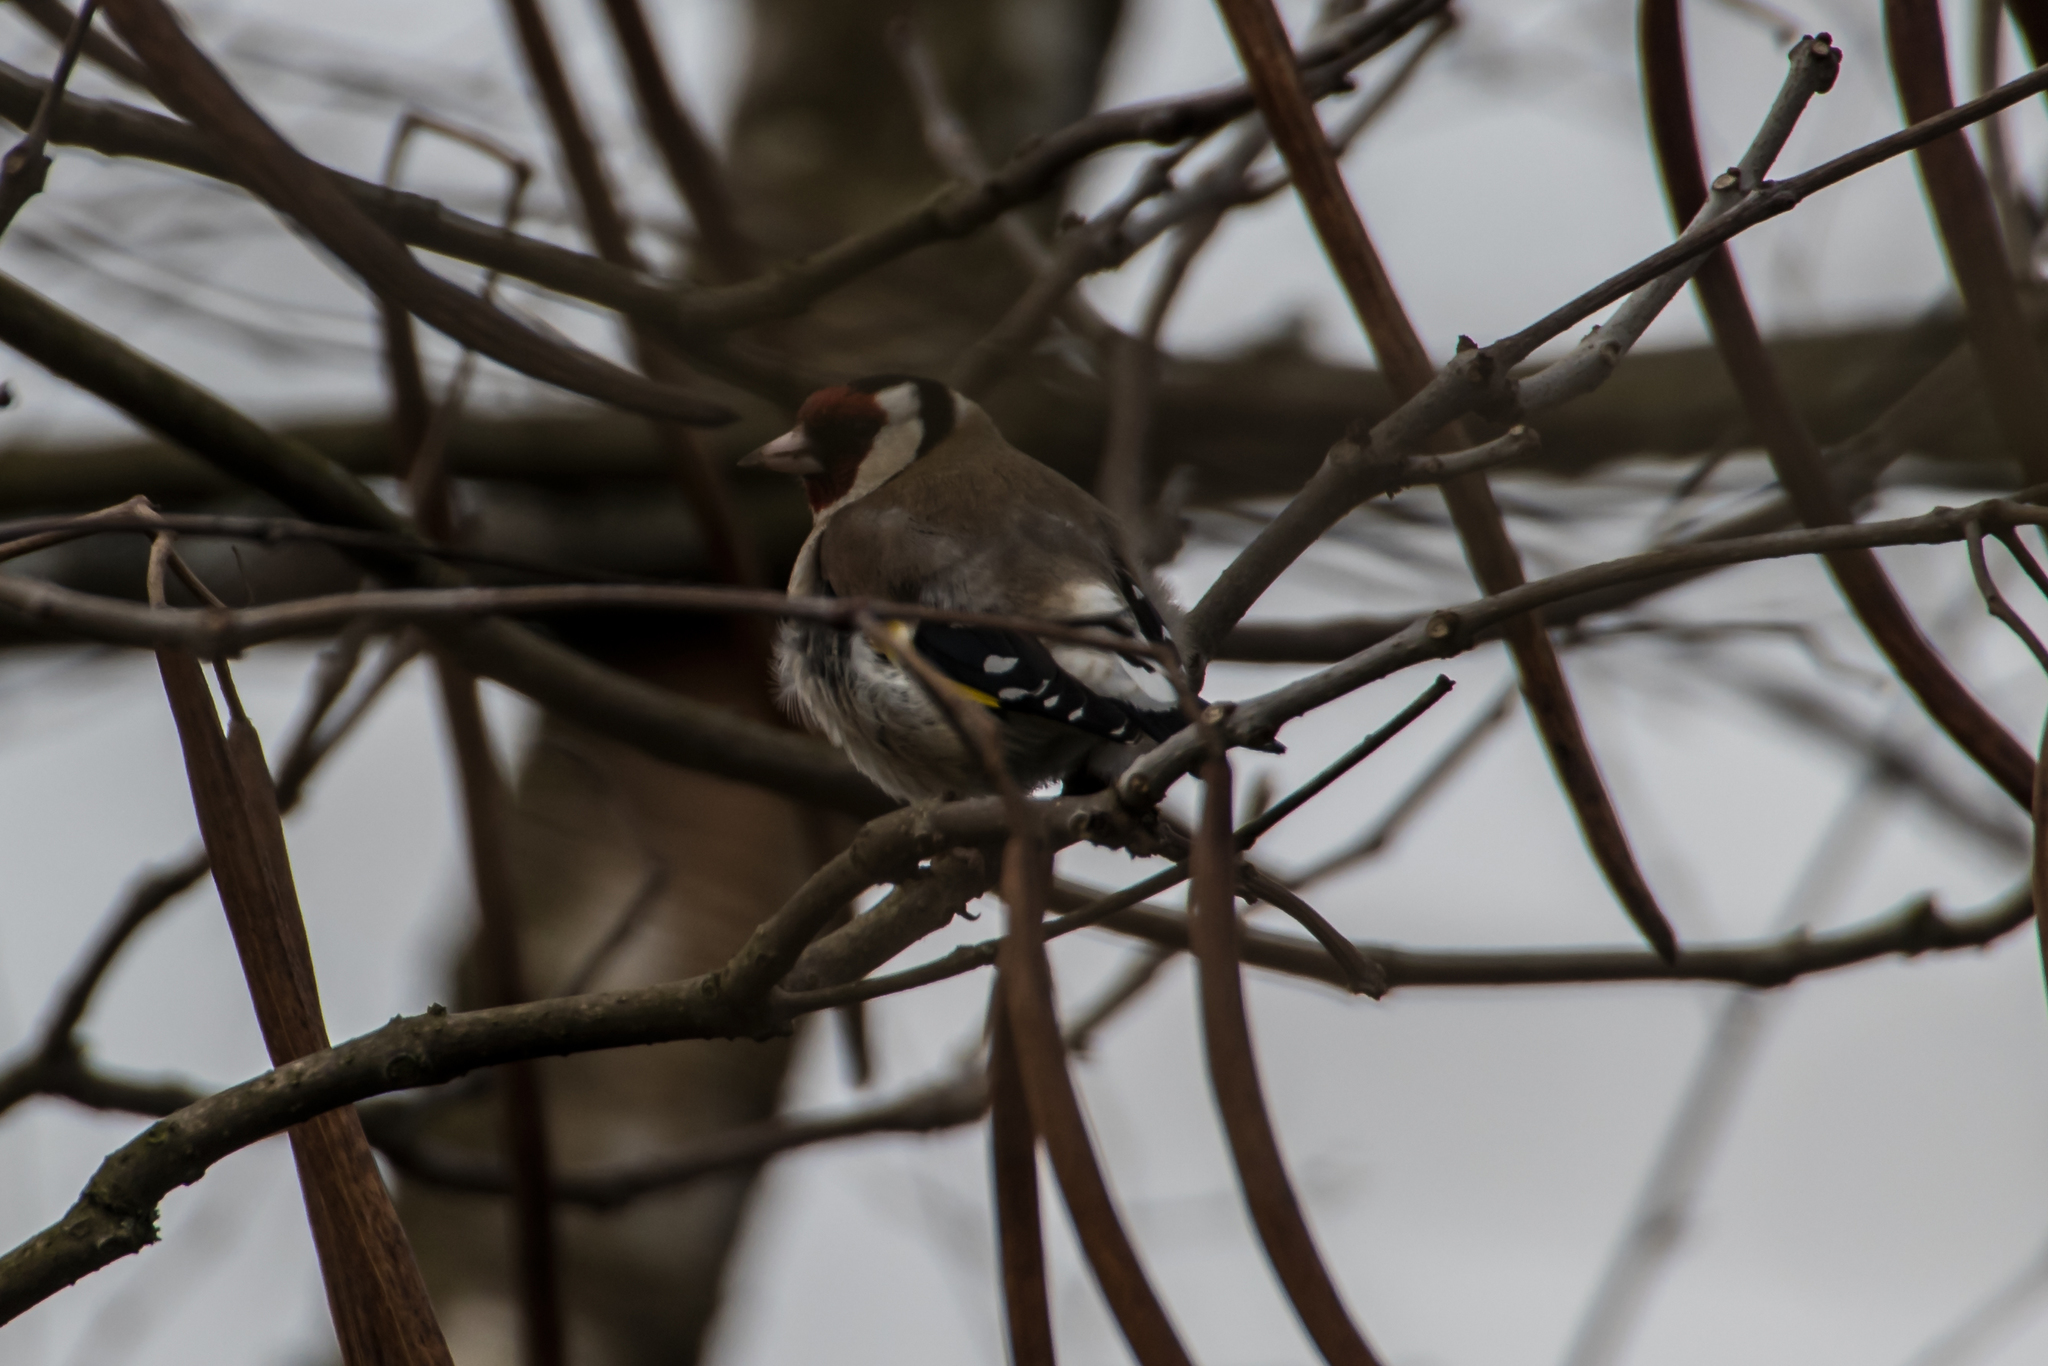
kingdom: Animalia
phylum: Chordata
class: Aves
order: Passeriformes
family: Fringillidae
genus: Carduelis
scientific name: Carduelis carduelis
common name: European goldfinch
